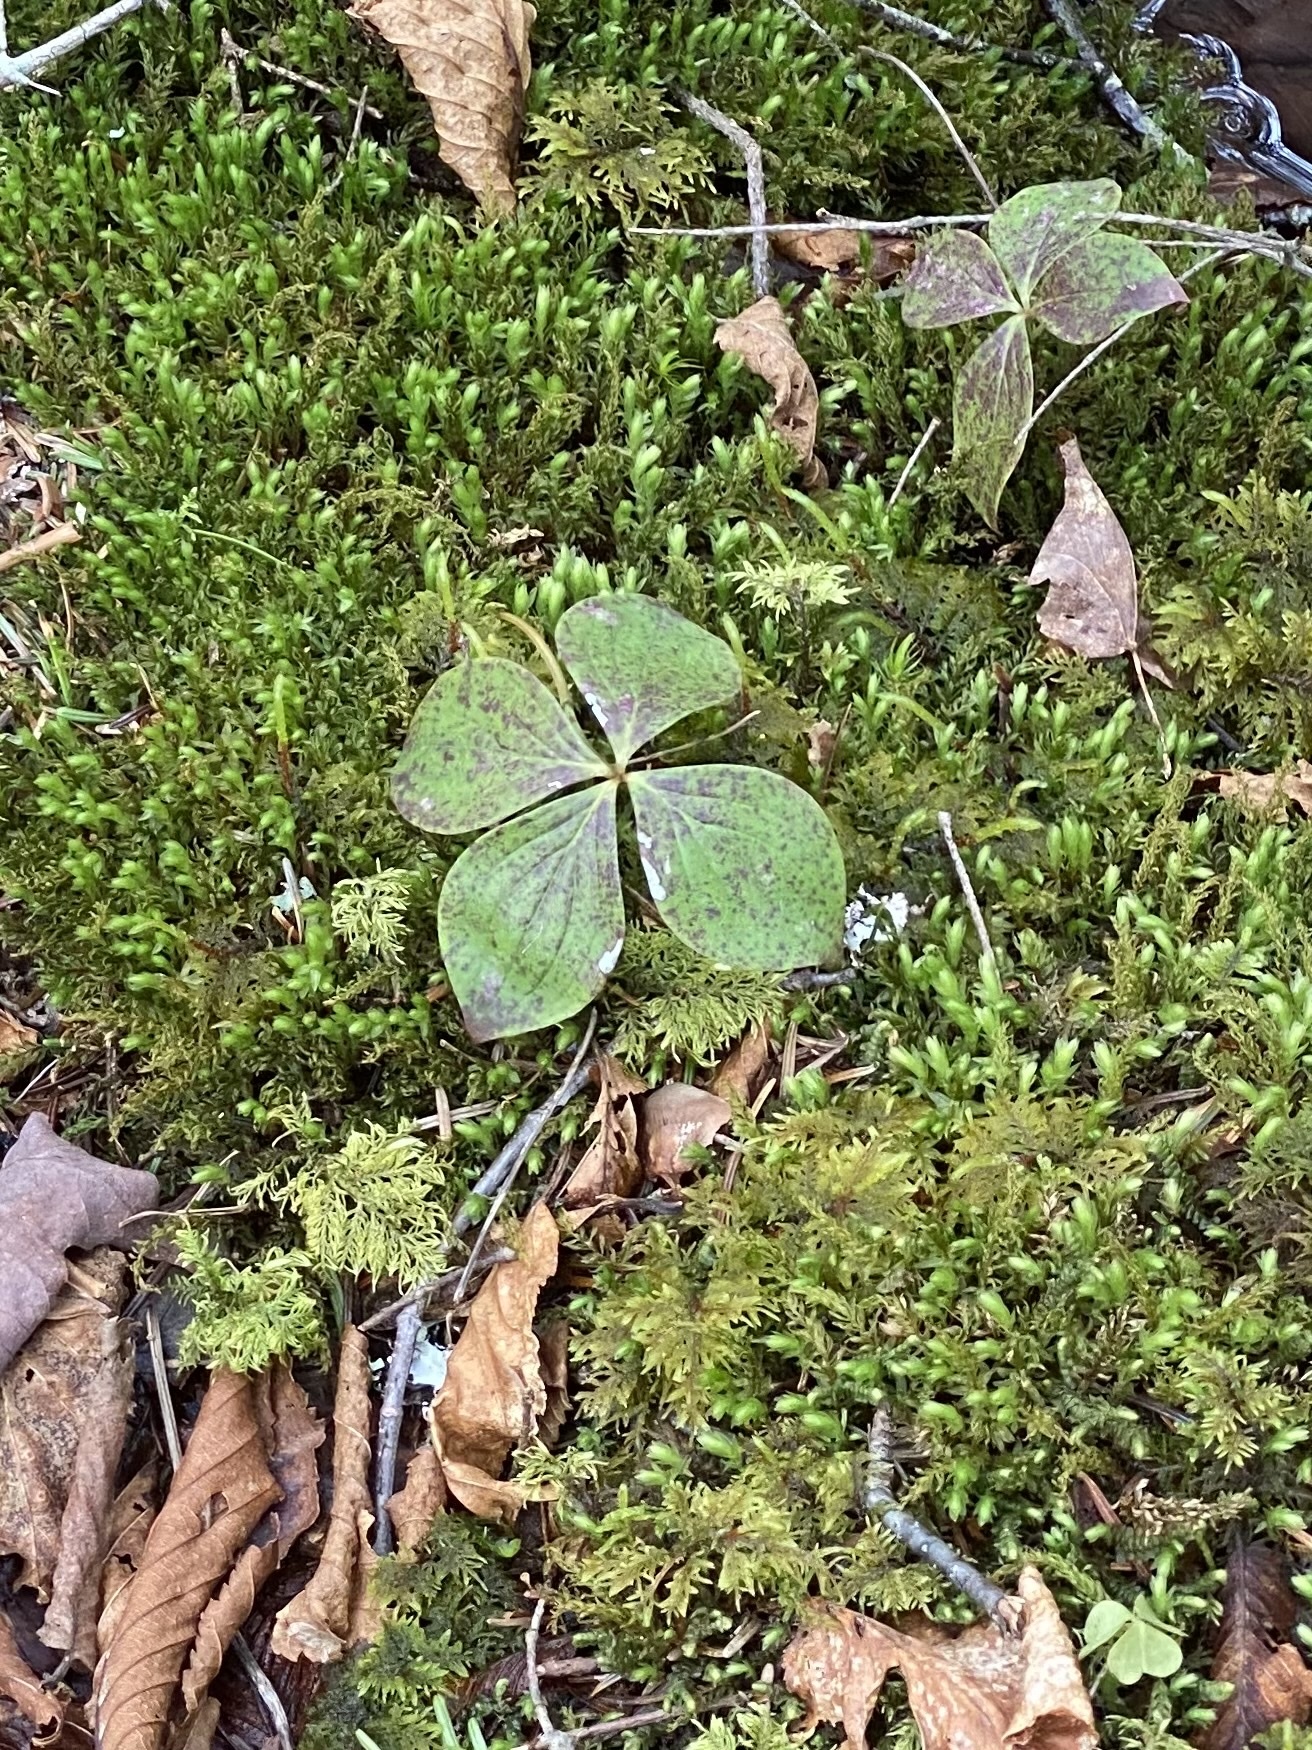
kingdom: Plantae
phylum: Tracheophyta
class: Magnoliopsida
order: Cornales
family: Cornaceae
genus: Cornus
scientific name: Cornus canadensis
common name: Creeping dogwood
